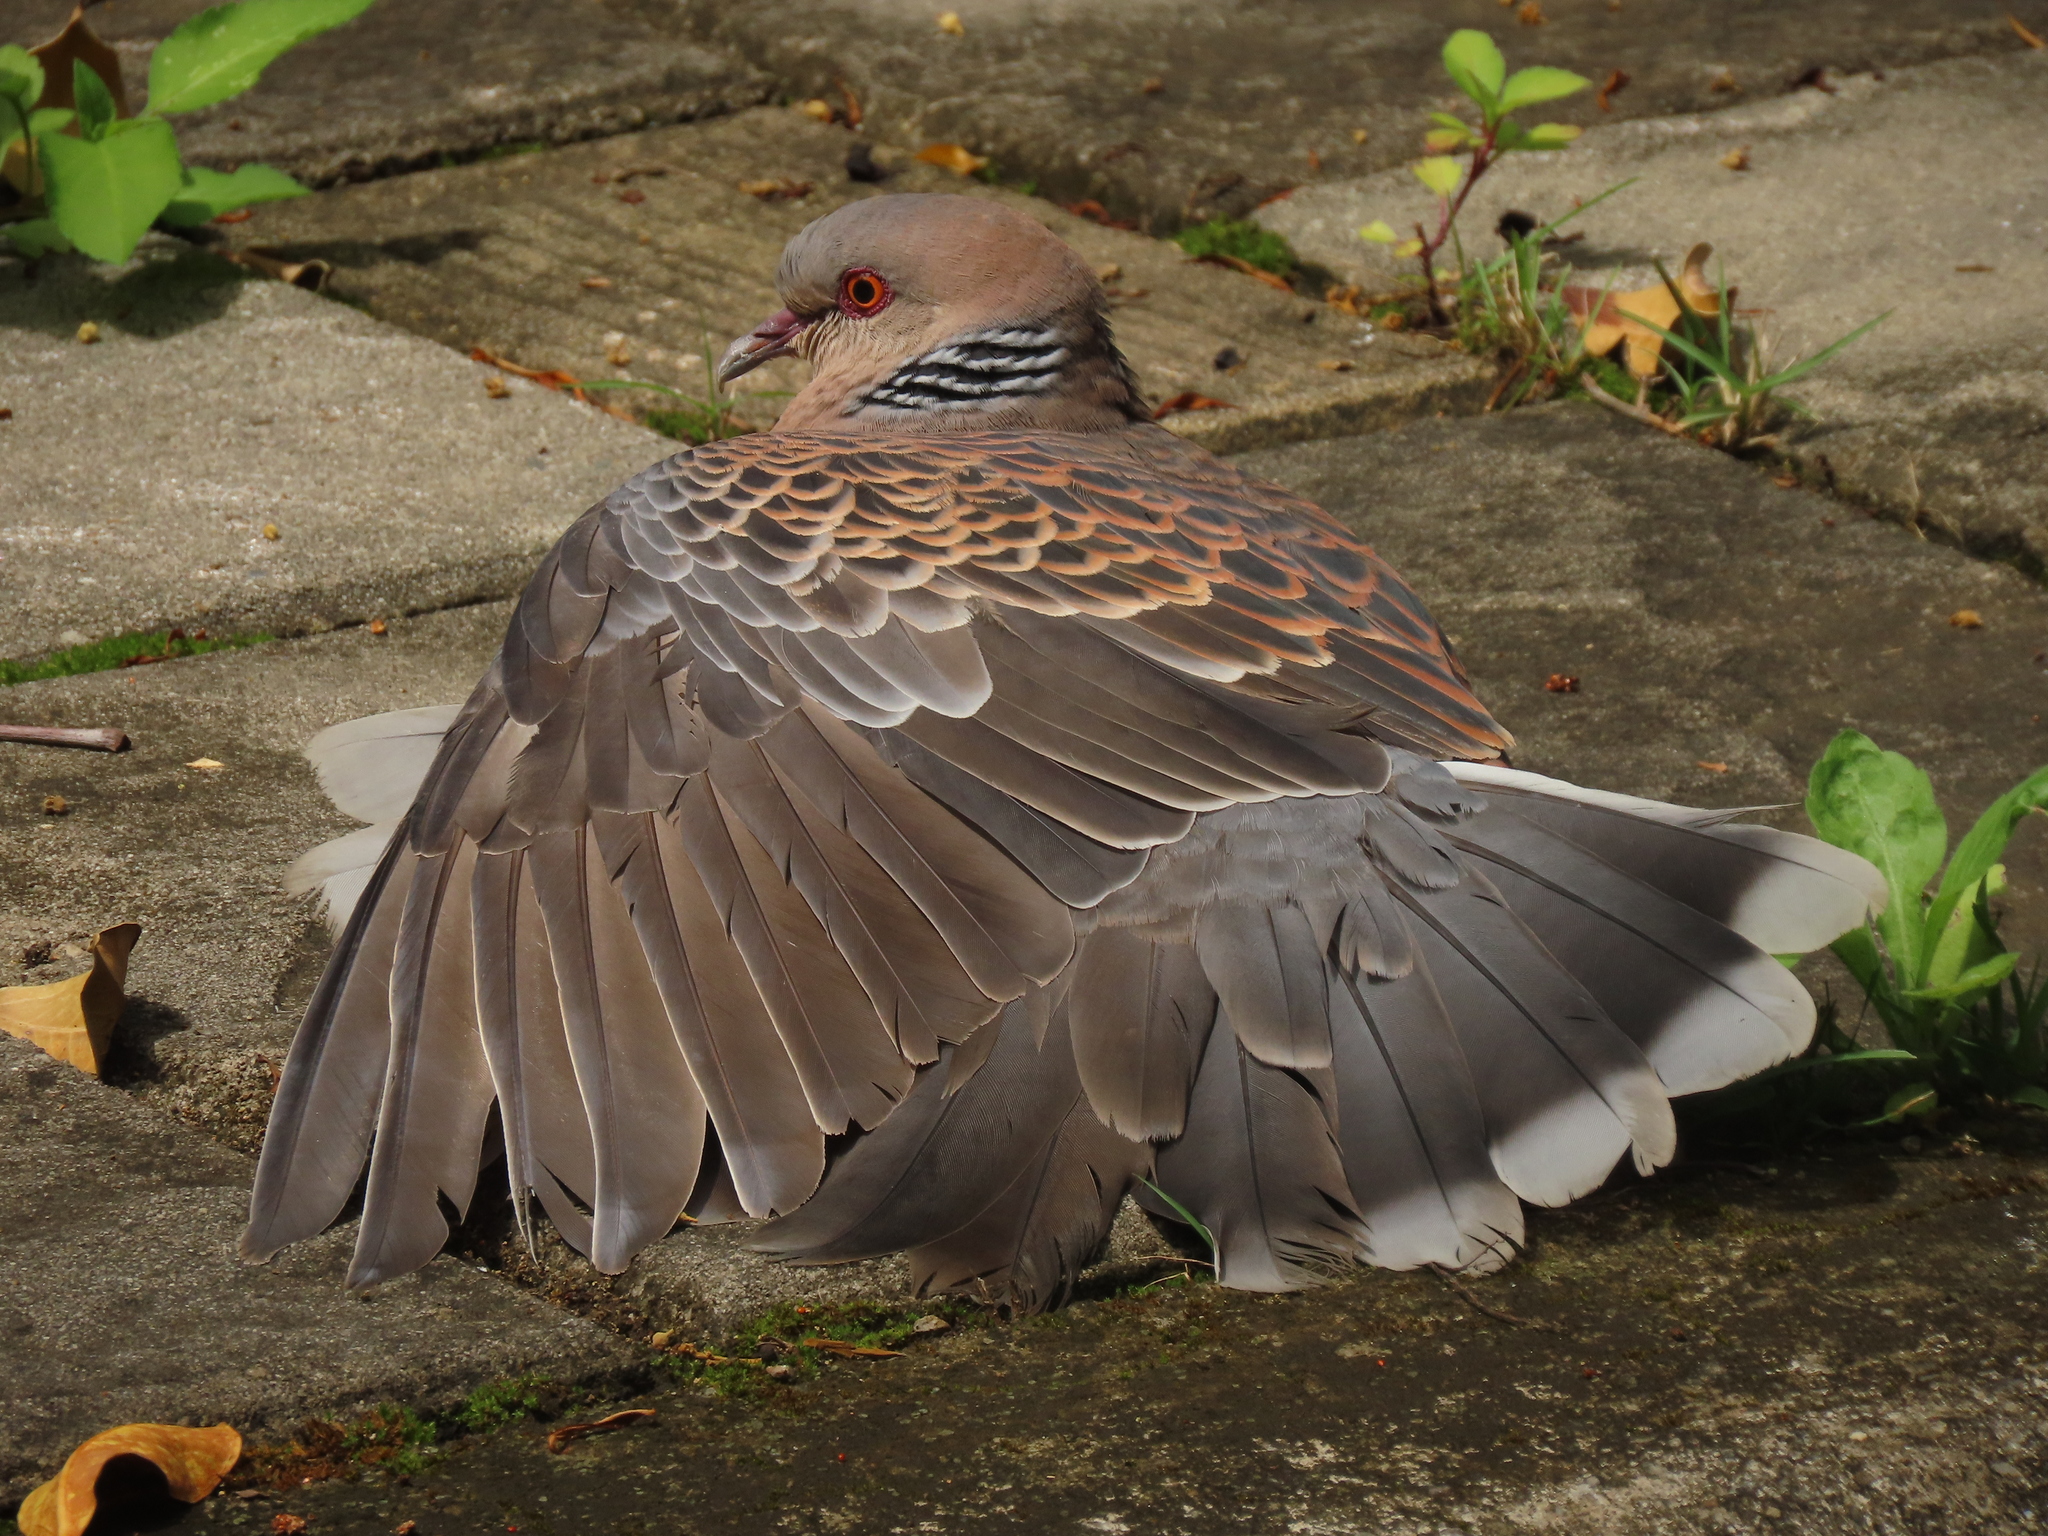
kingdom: Animalia
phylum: Chordata
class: Aves
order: Columbiformes
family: Columbidae
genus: Streptopelia
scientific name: Streptopelia orientalis
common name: Oriental turtle dove
